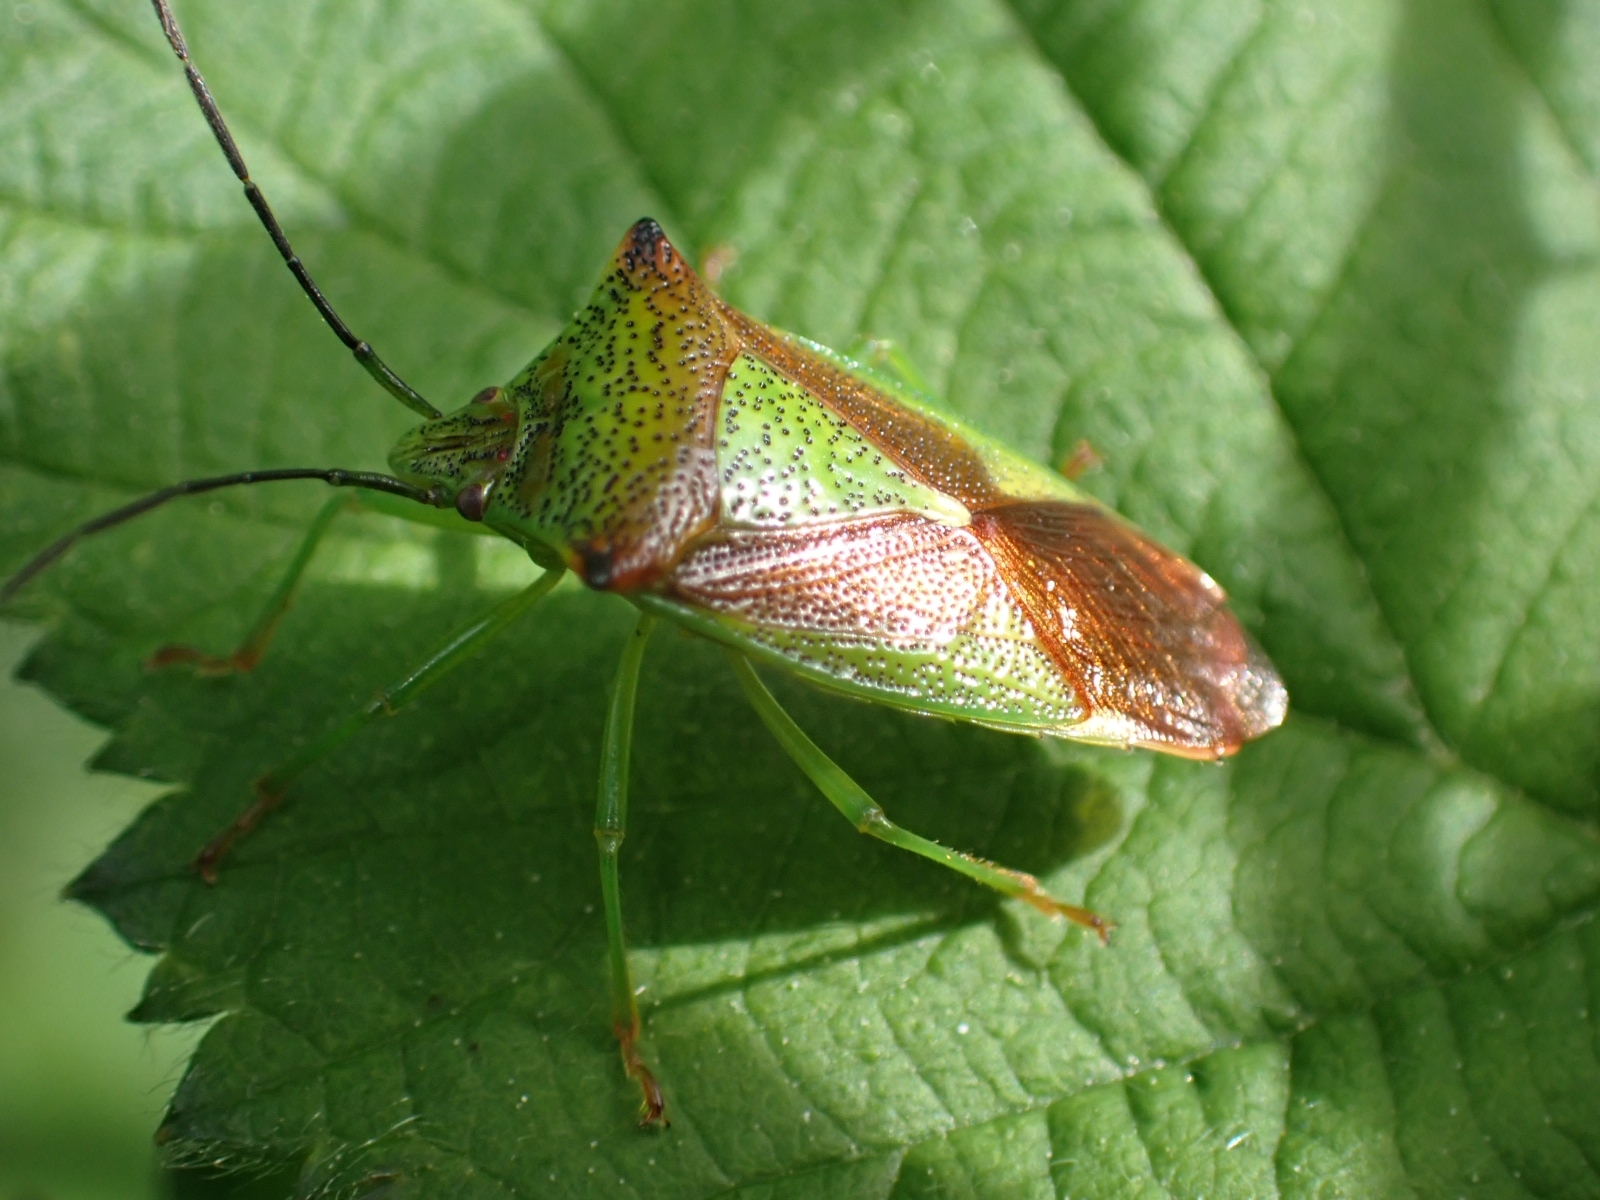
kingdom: Animalia
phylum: Arthropoda
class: Insecta
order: Hemiptera
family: Acanthosomatidae
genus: Acanthosoma
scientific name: Acanthosoma haemorrhoidale
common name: Hawthorn shieldbug
